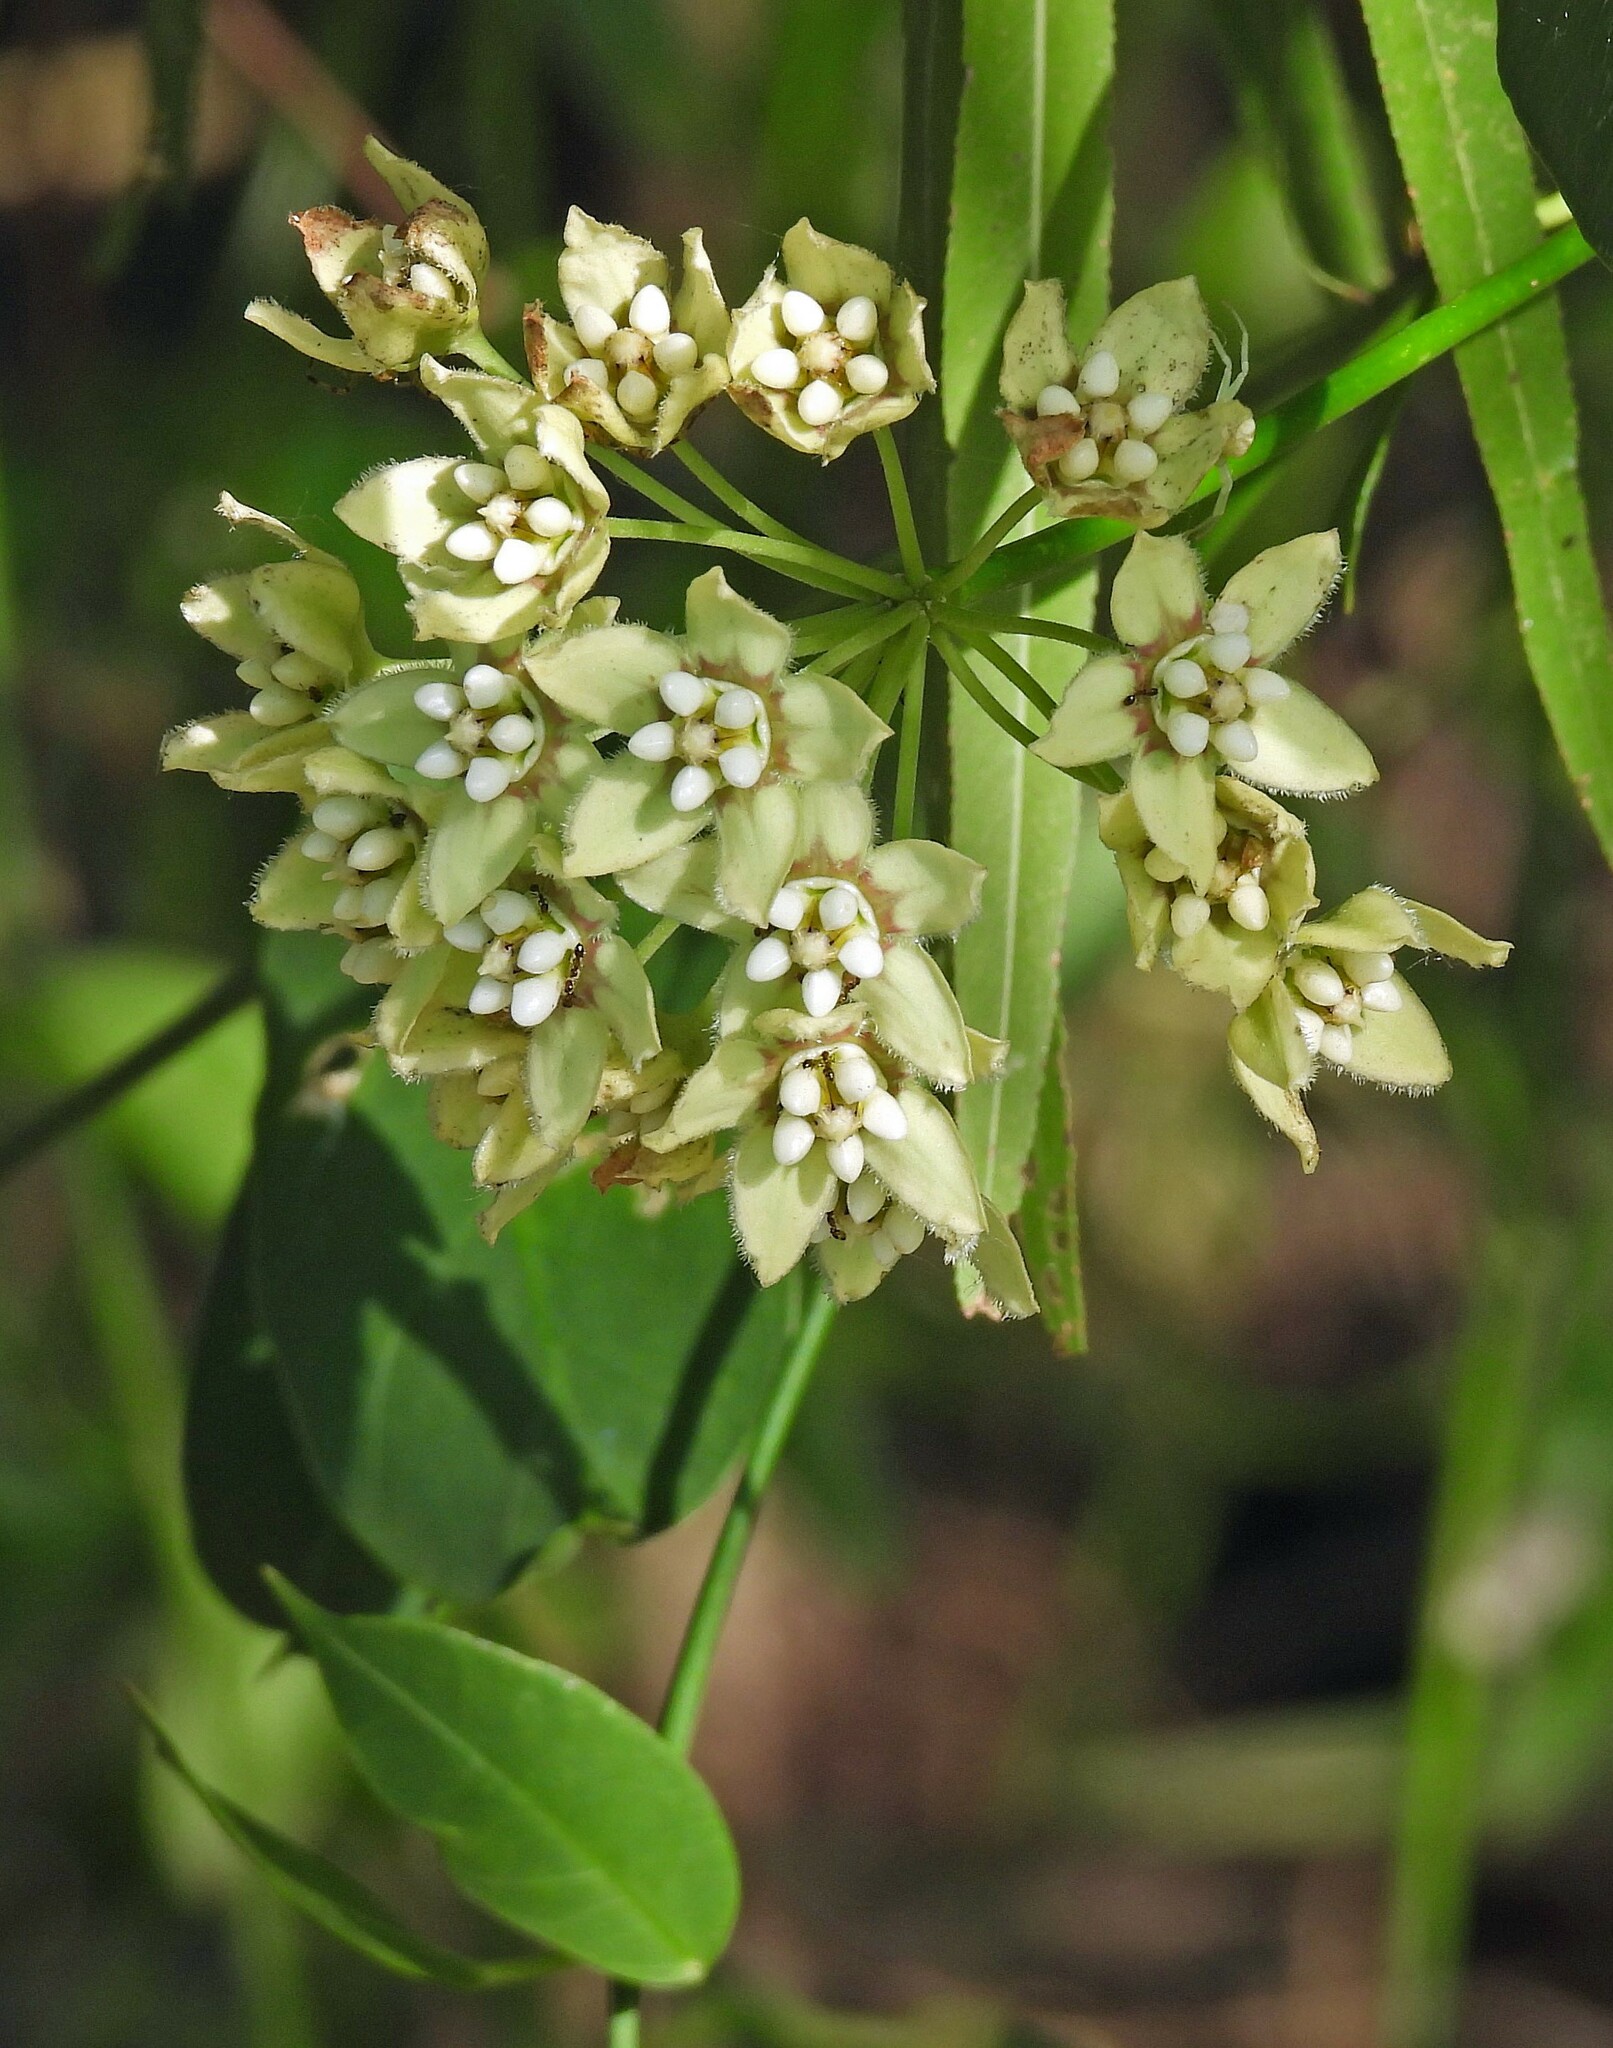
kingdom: Plantae
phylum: Tracheophyta
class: Magnoliopsida
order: Gentianales
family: Apocynaceae
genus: Funastrum
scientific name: Funastrum clausum
